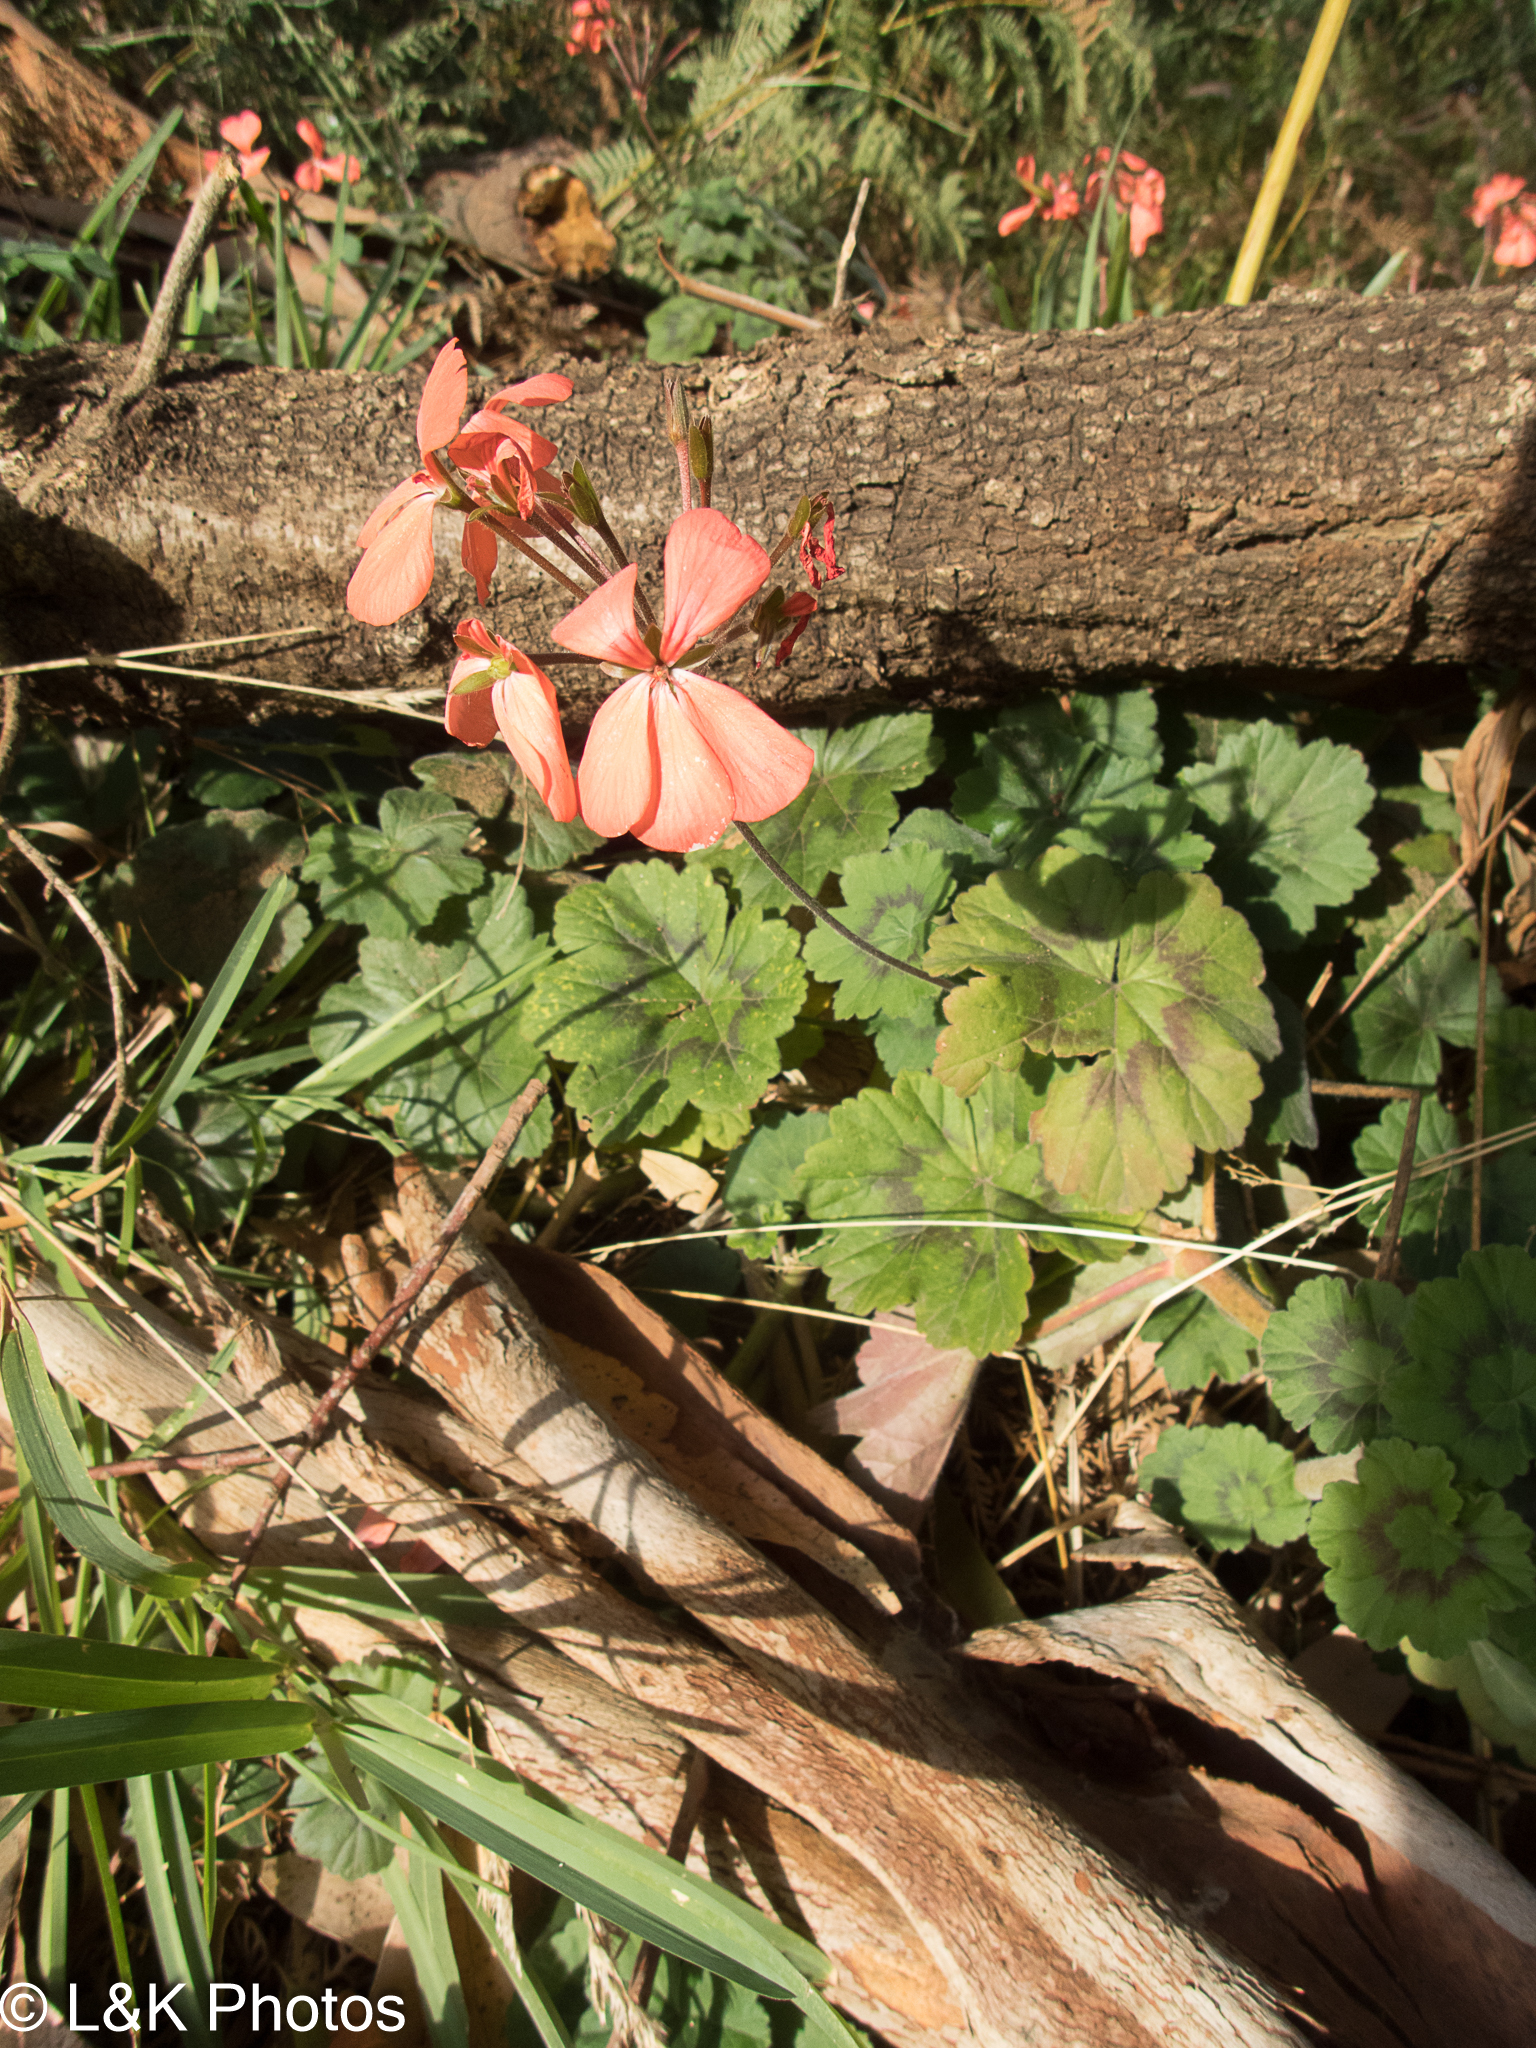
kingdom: Plantae
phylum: Tracheophyta
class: Magnoliopsida
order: Geraniales
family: Geraniaceae
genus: Pelargonium
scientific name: Pelargonium hybridum
